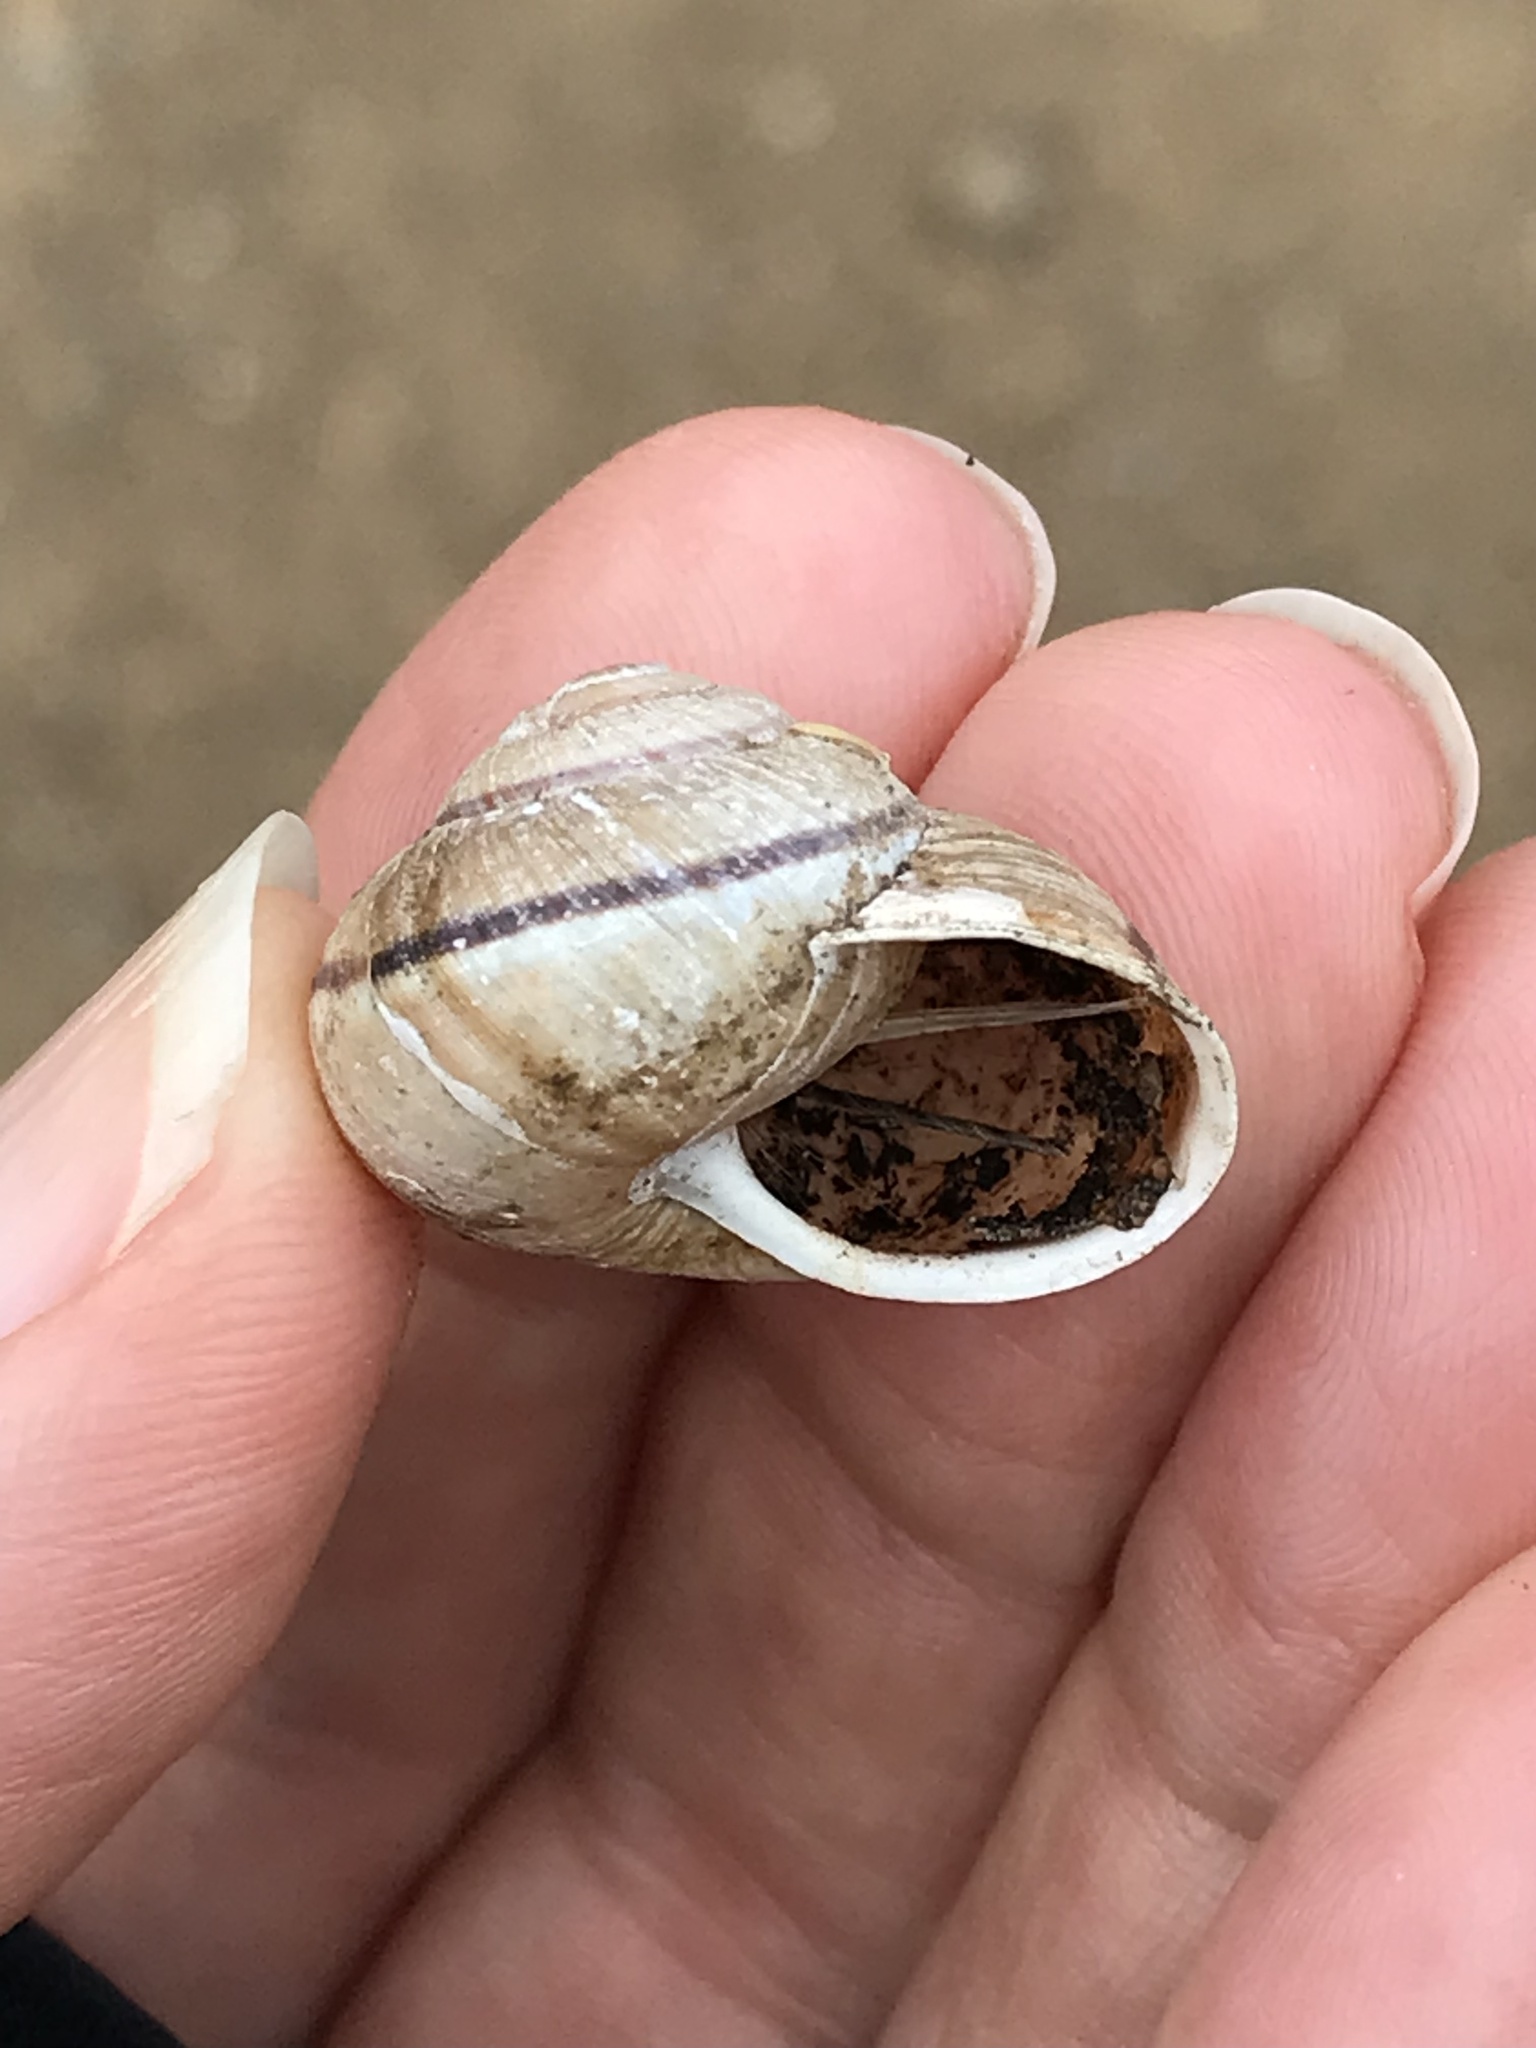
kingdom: Animalia
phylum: Mollusca
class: Gastropoda
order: Stylommatophora
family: Xanthonychidae
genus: Helminthoglypta
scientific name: Helminthoglypta nickliniana
